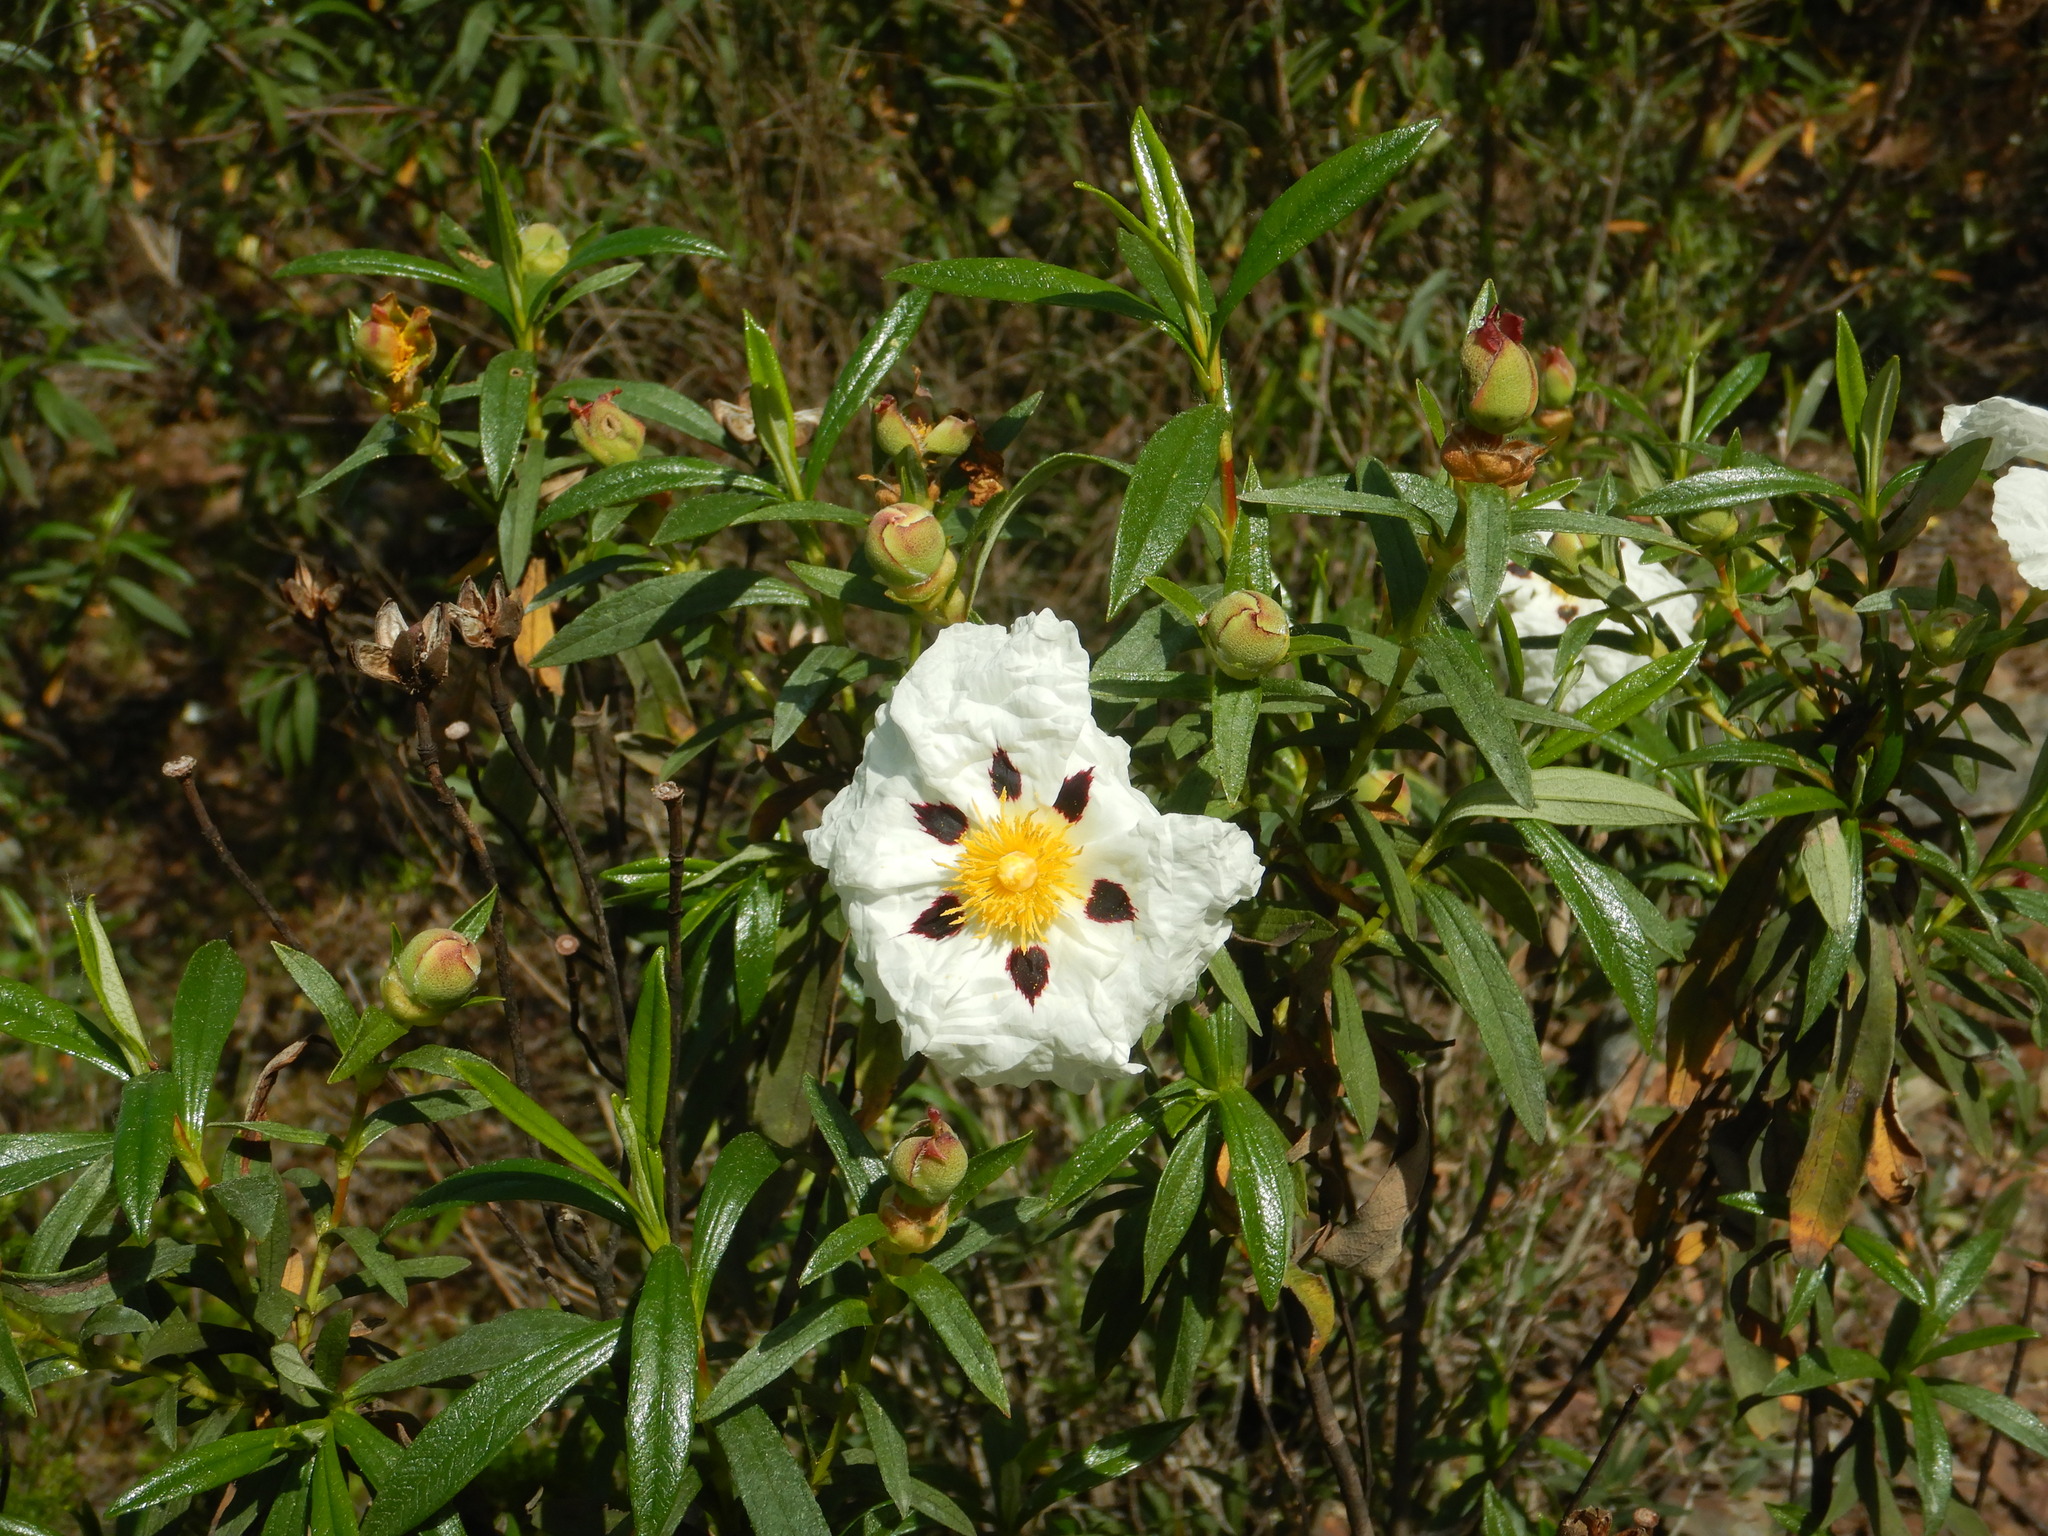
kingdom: Plantae
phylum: Tracheophyta
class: Magnoliopsida
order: Malvales
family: Cistaceae
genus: Cistus
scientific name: Cistus ladanifer
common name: Common gum cistus
